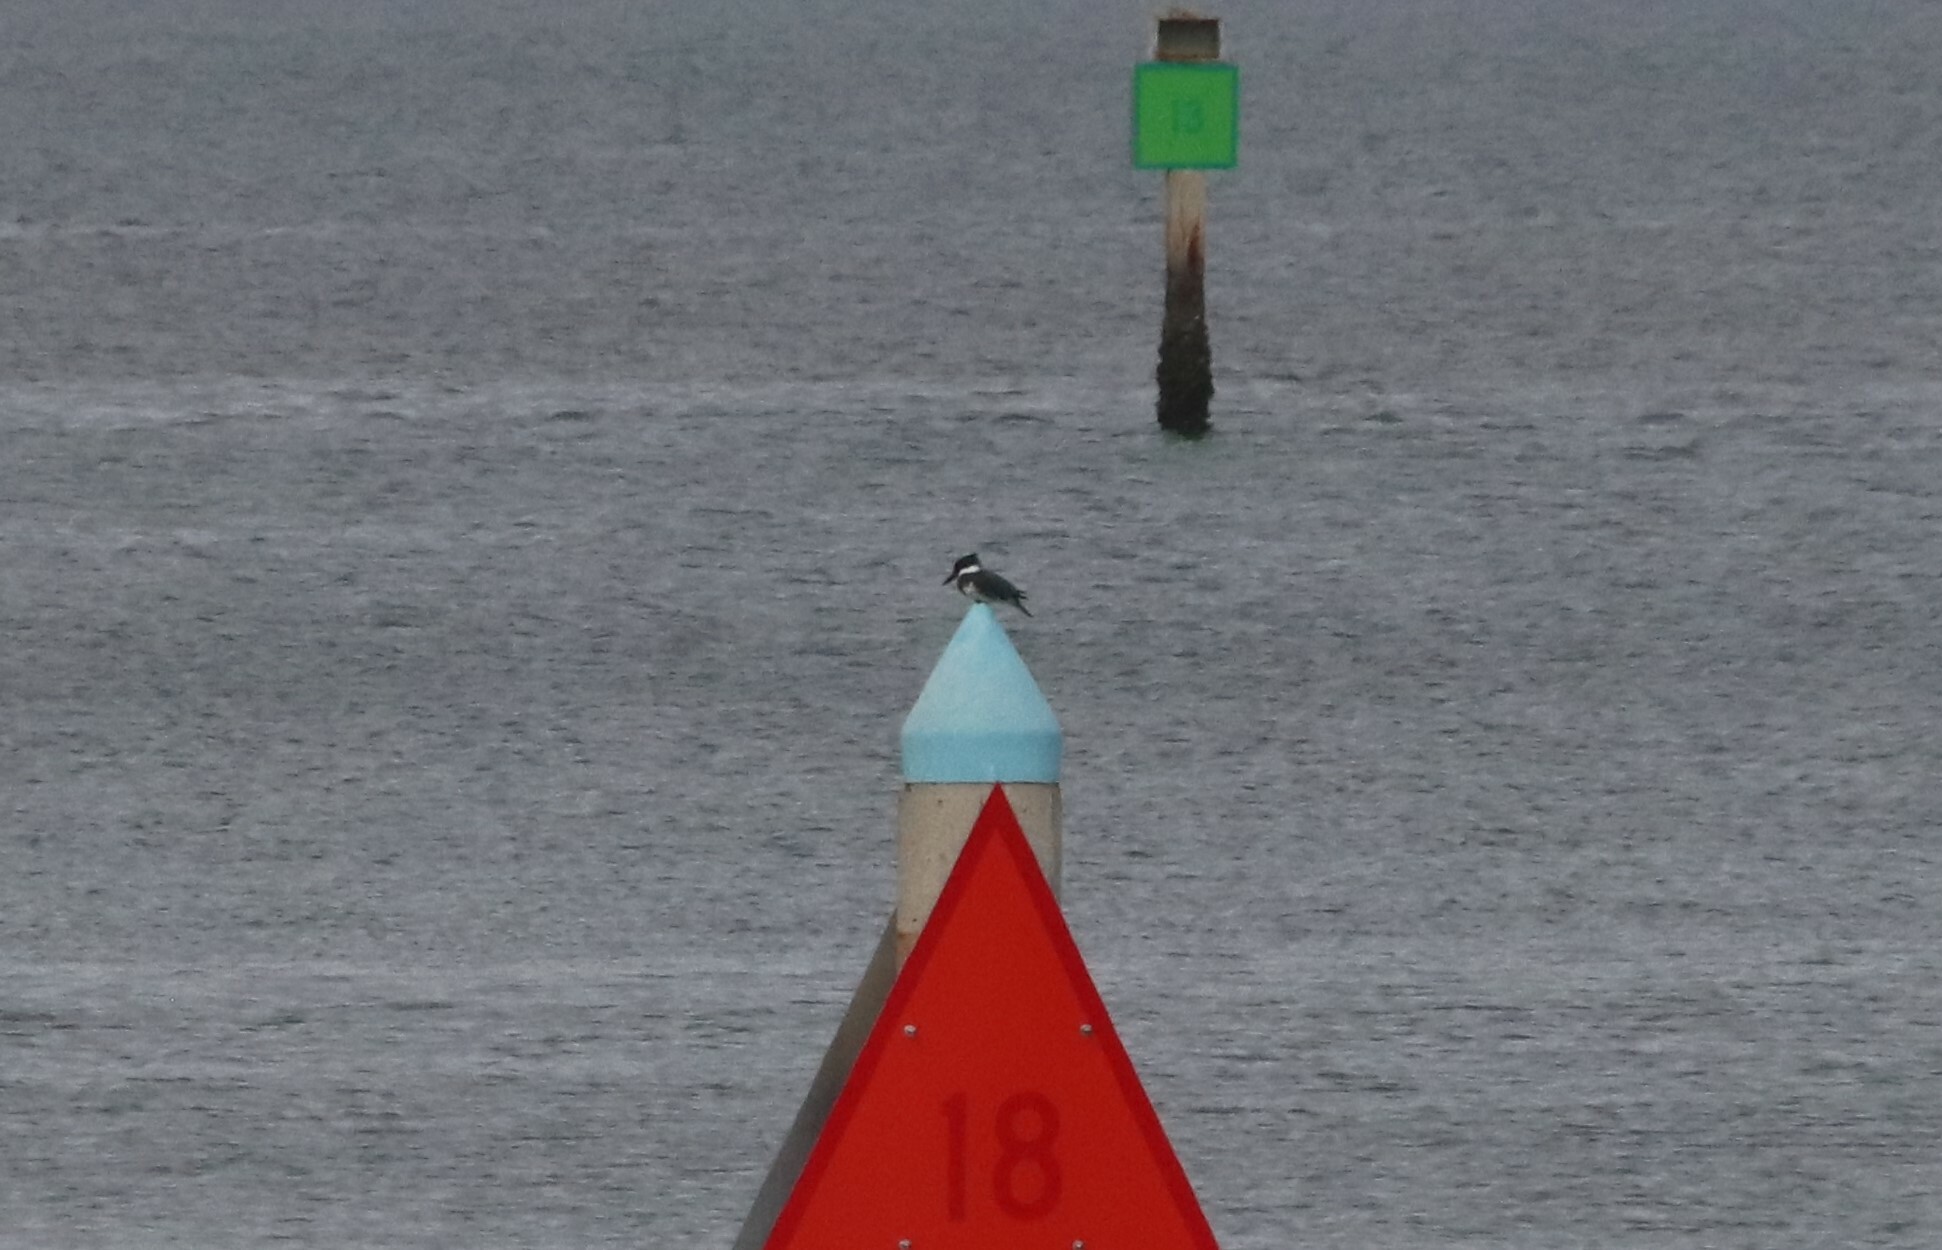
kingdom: Animalia
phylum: Chordata
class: Aves
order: Coraciiformes
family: Alcedinidae
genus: Megaceryle
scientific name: Megaceryle alcyon
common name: Belted kingfisher
